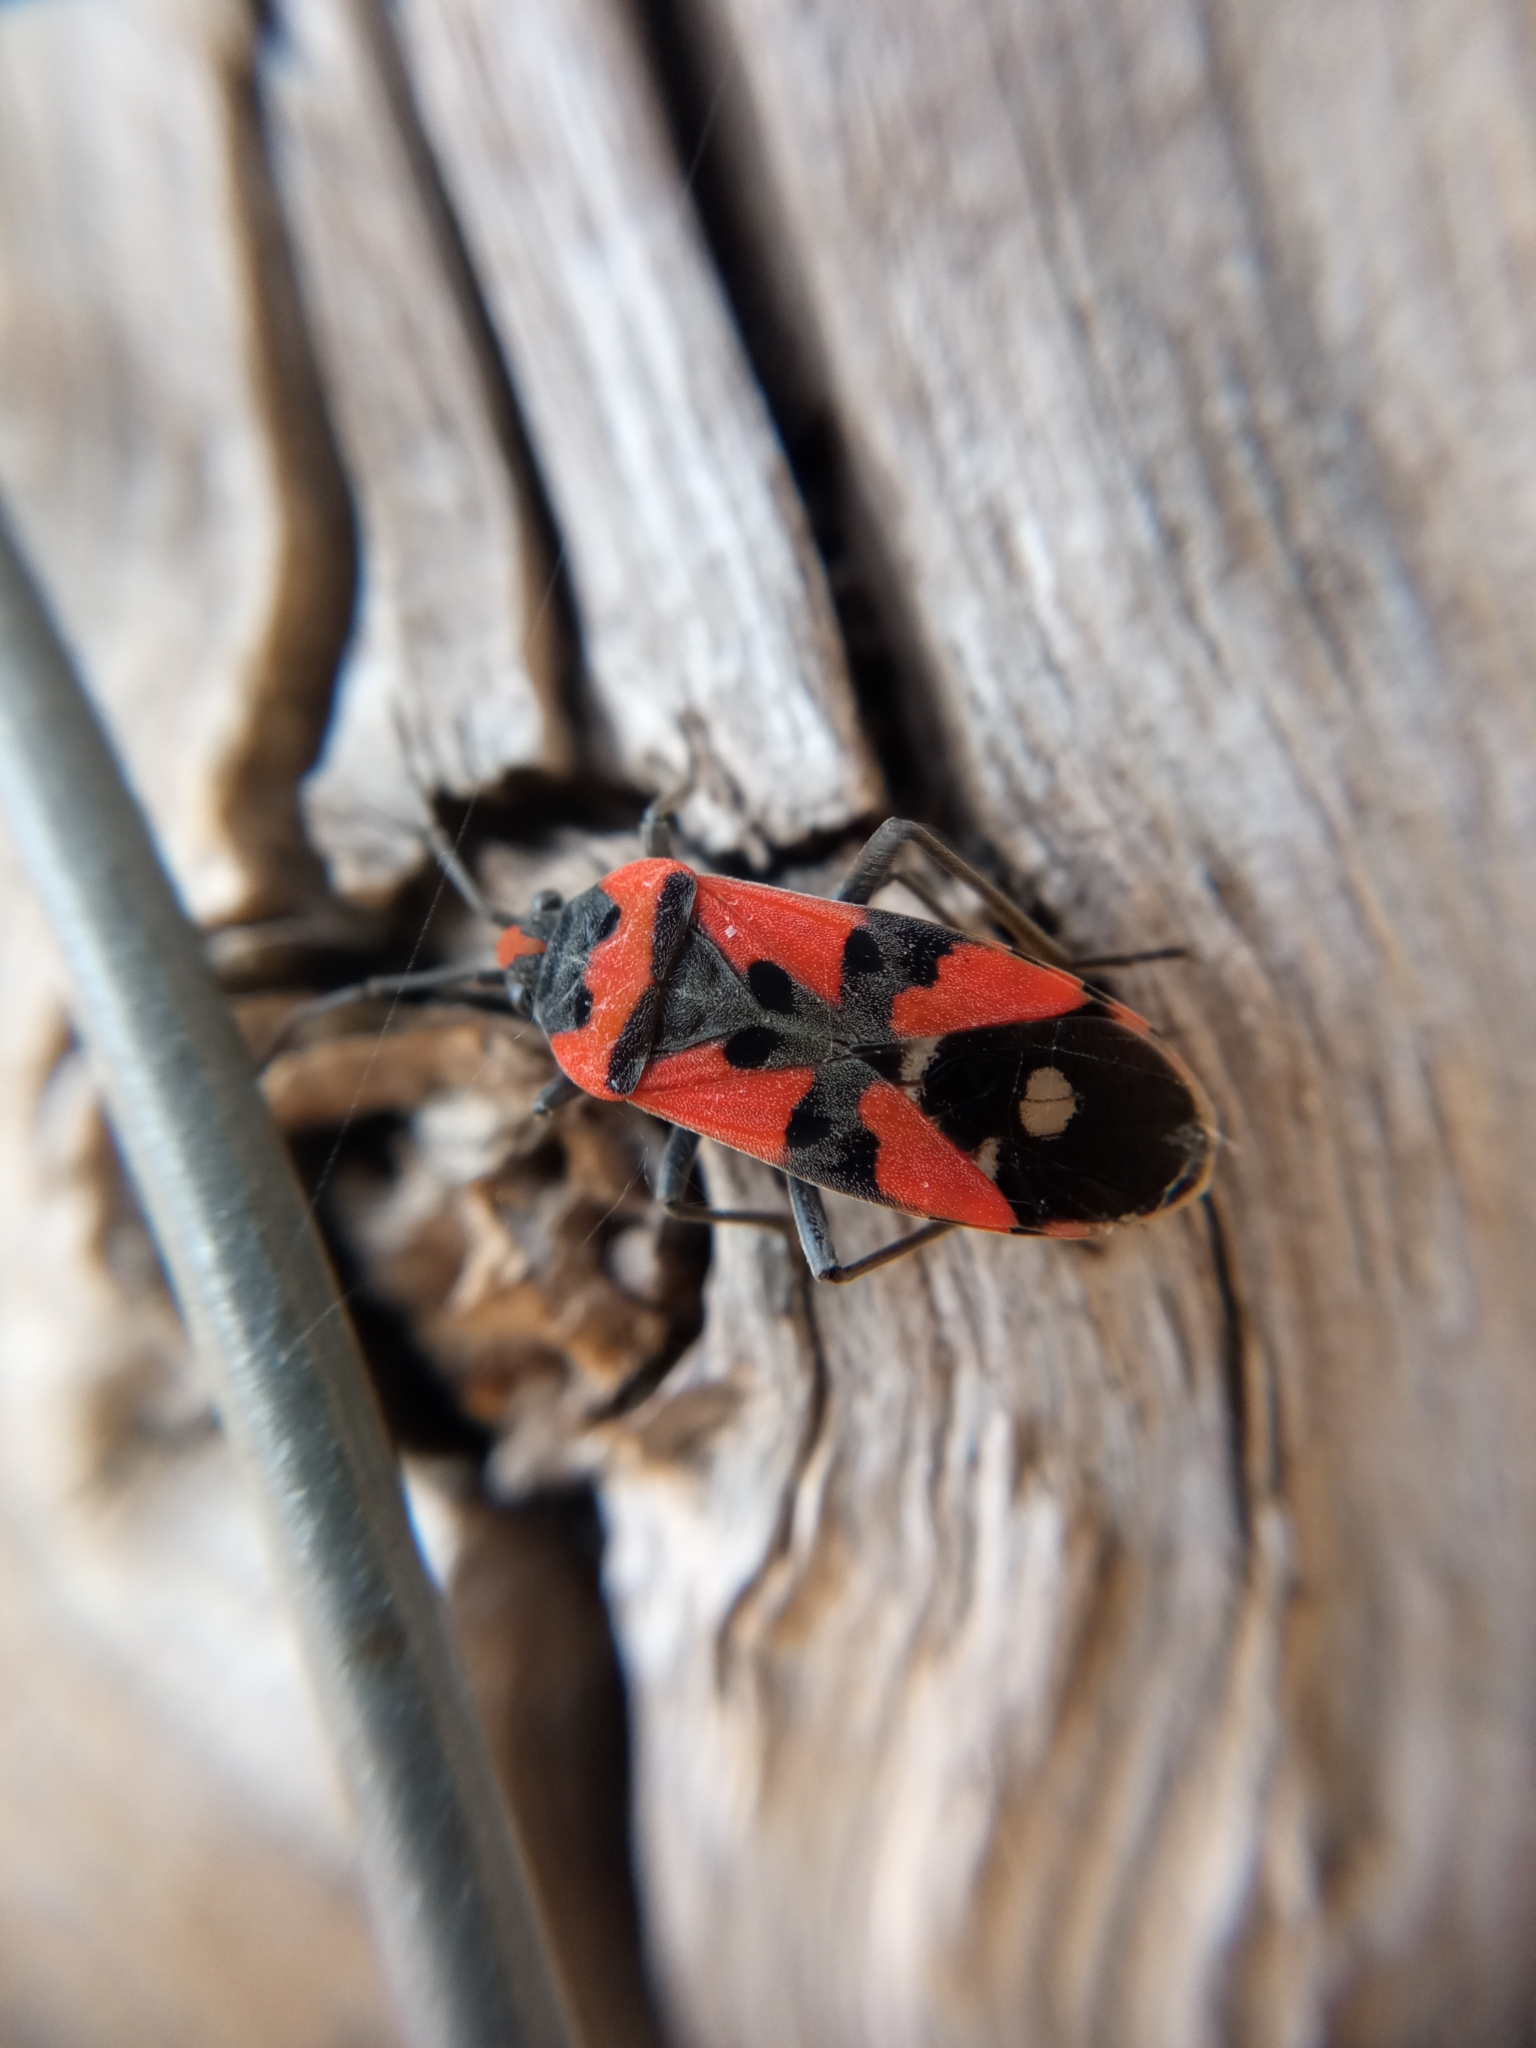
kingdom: Animalia
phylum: Arthropoda
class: Insecta
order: Hemiptera
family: Lygaeidae
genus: Lygaeus
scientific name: Lygaeus equestris
